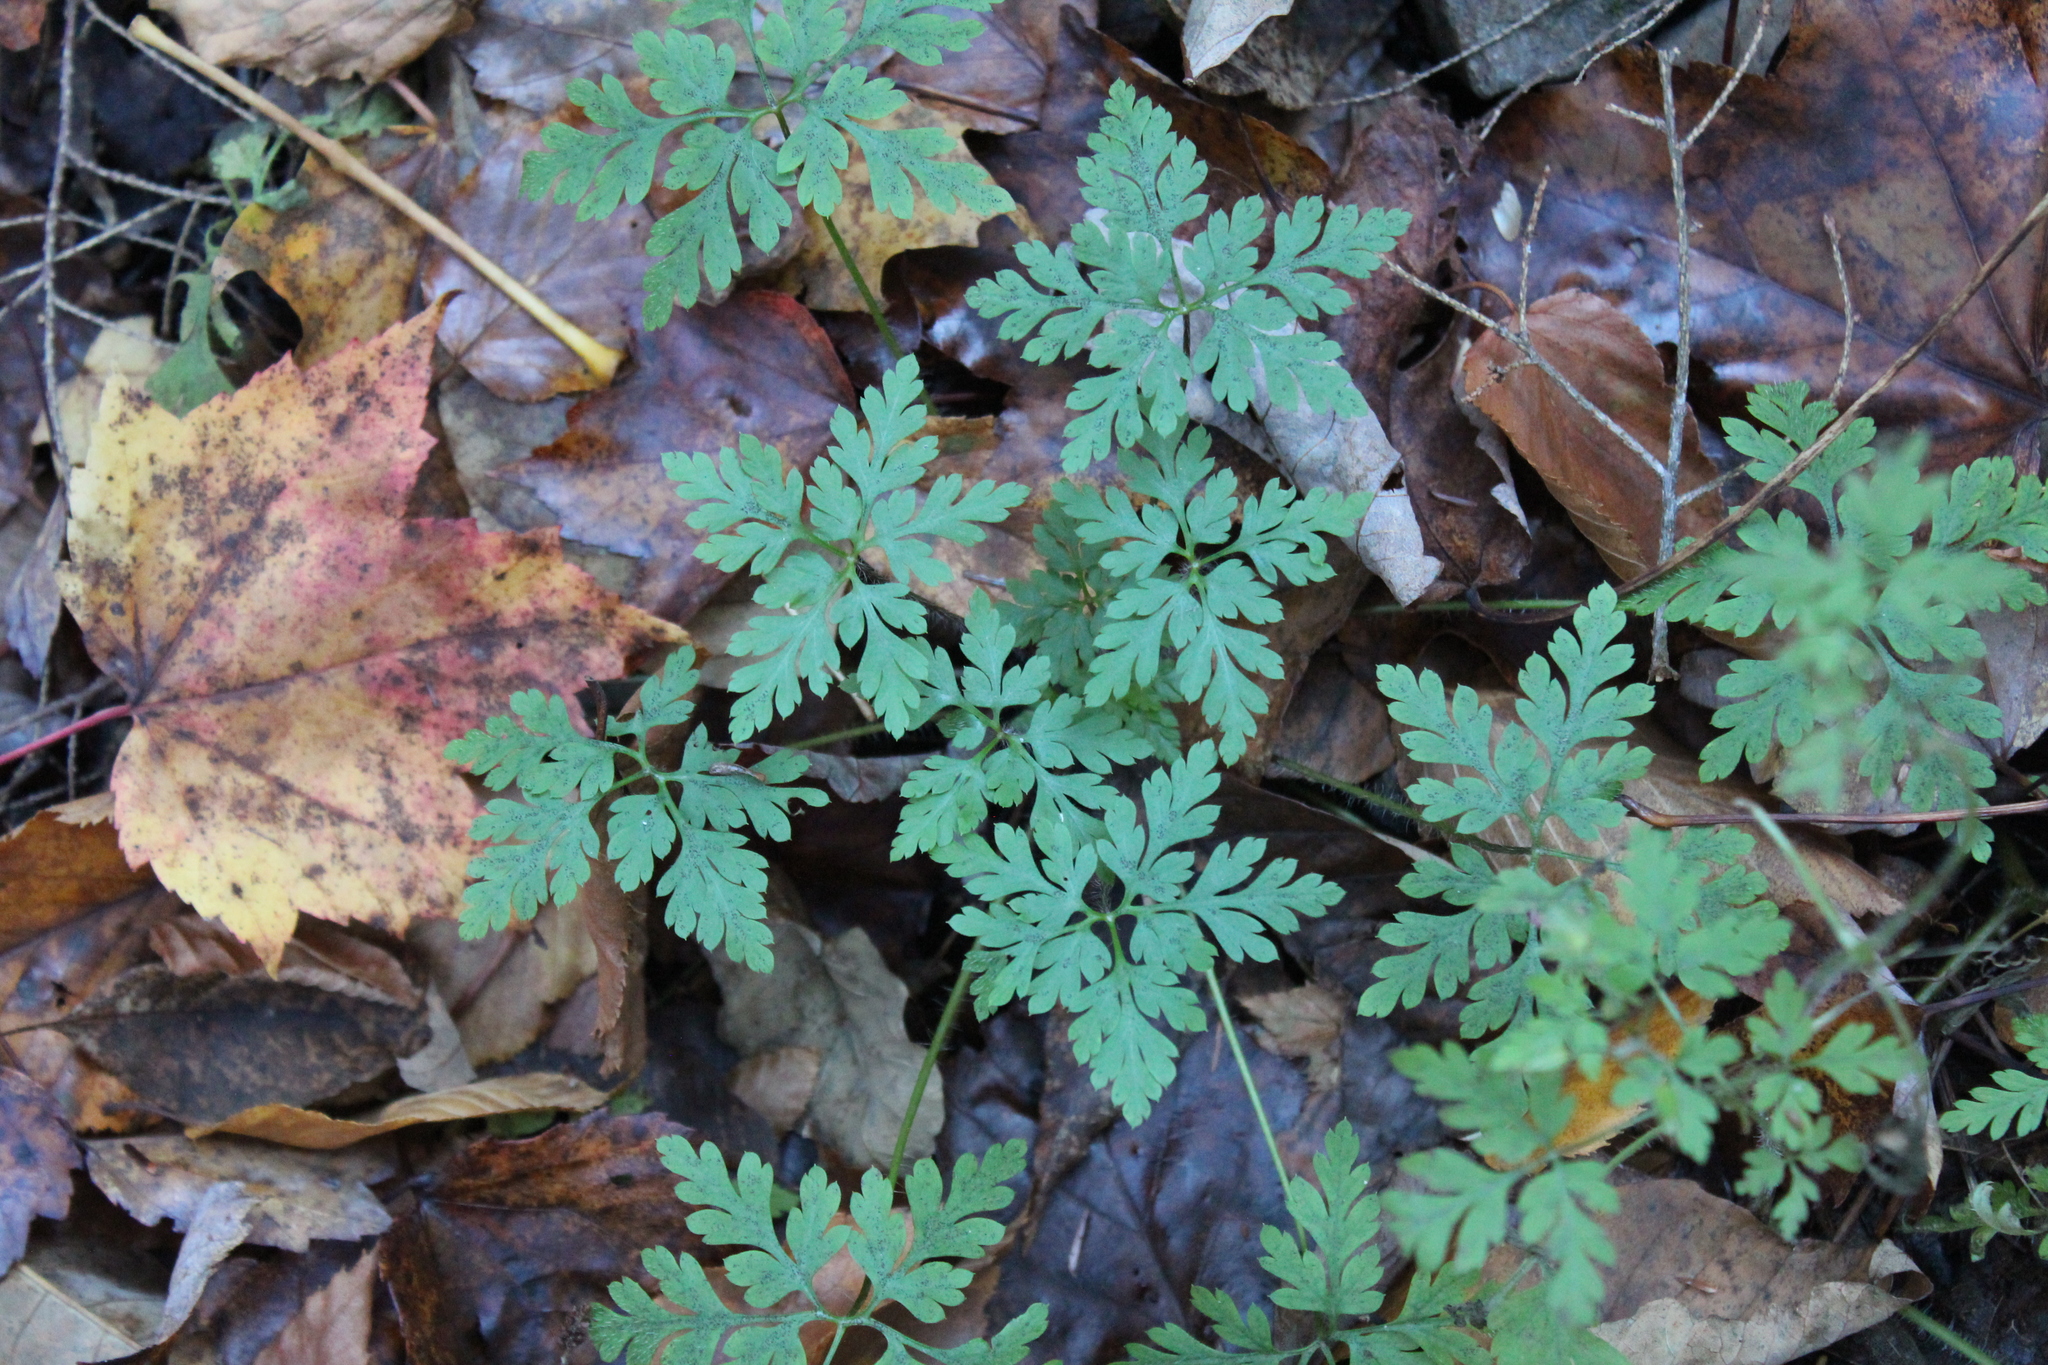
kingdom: Plantae
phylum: Tracheophyta
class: Magnoliopsida
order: Geraniales
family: Geraniaceae
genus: Geranium
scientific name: Geranium robertianum
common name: Herb-robert
